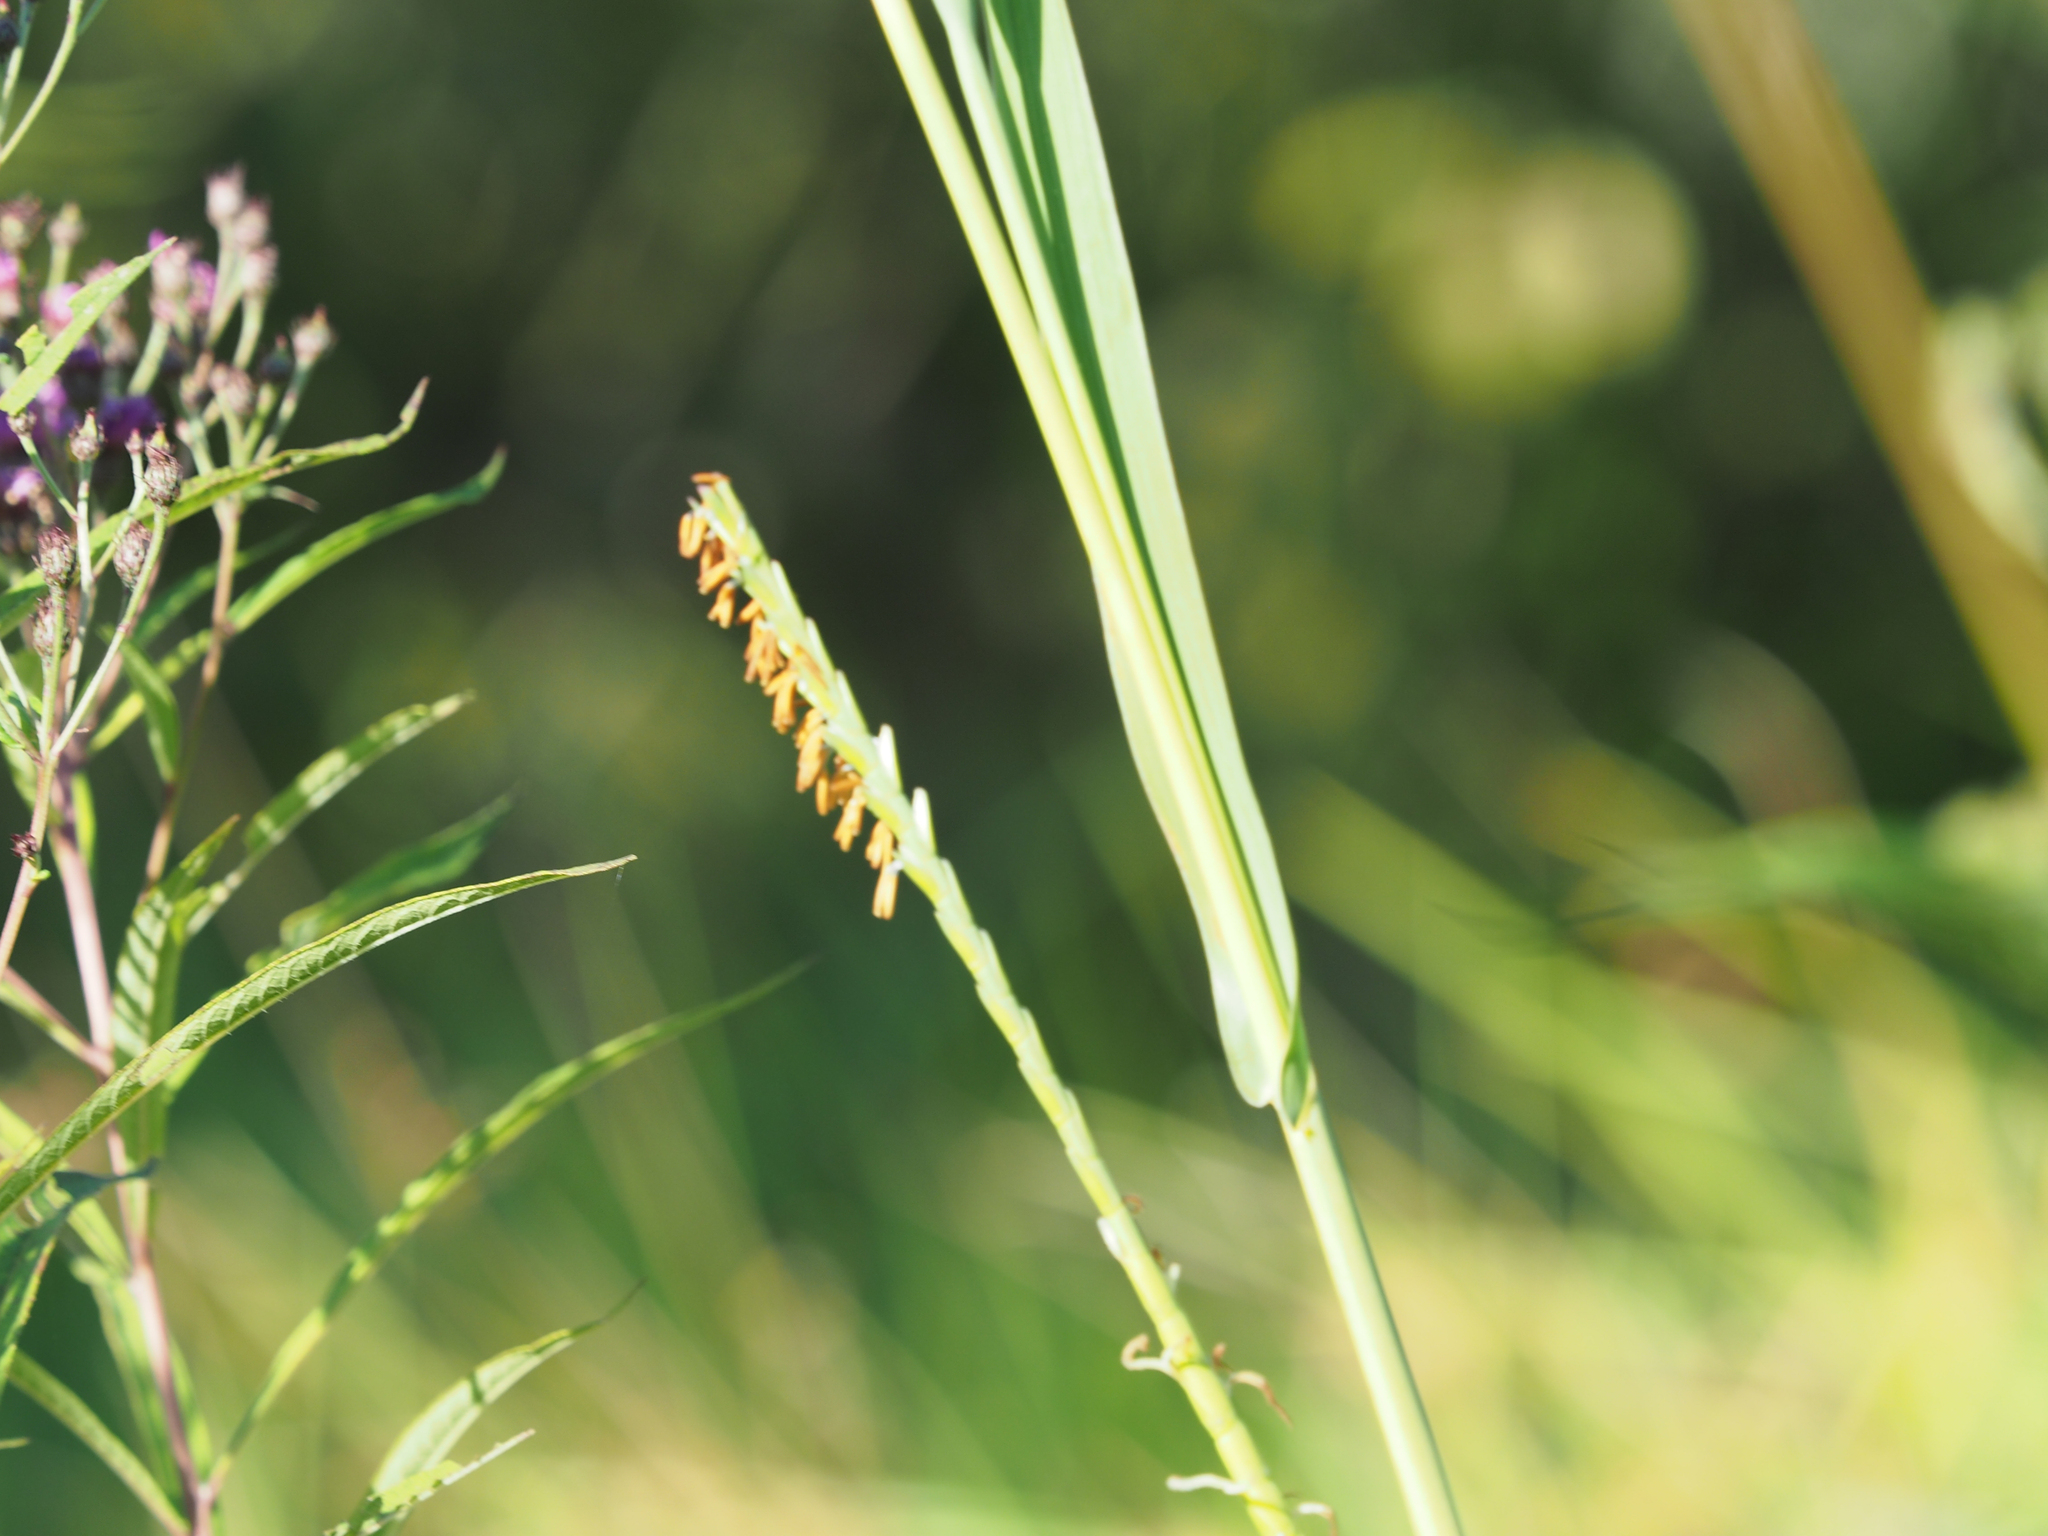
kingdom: Plantae
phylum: Tracheophyta
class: Liliopsida
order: Poales
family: Poaceae
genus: Tripsacum
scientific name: Tripsacum dactyloides
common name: Buffalo-grass
